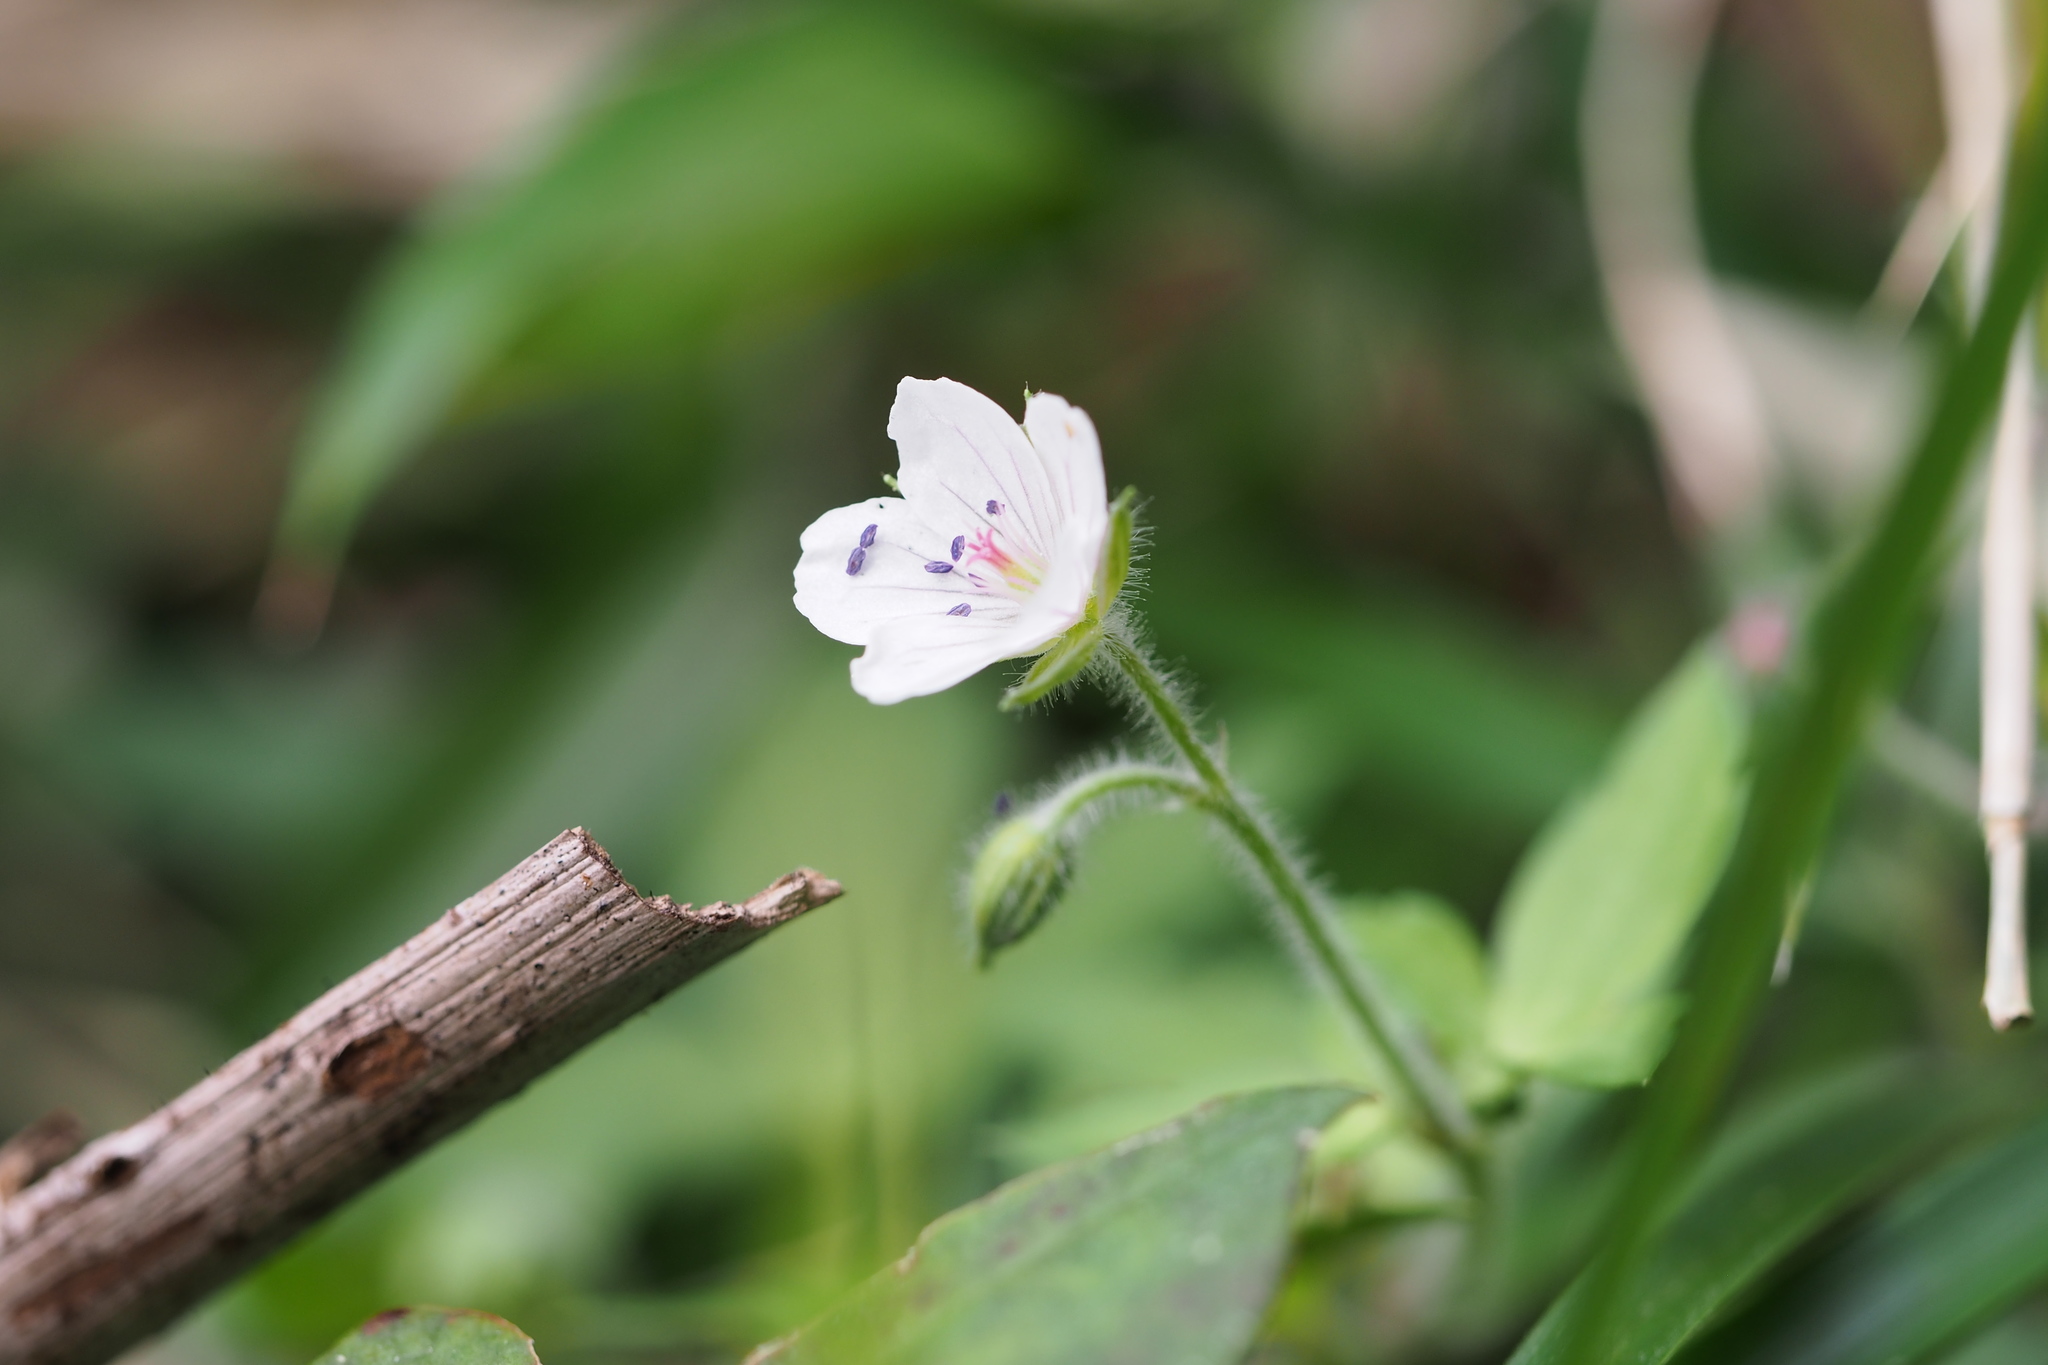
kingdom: Plantae
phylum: Tracheophyta
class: Magnoliopsida
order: Geraniales
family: Geraniaceae
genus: Geranium
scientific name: Geranium thunbergii
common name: Dewdrop crane's-bill
